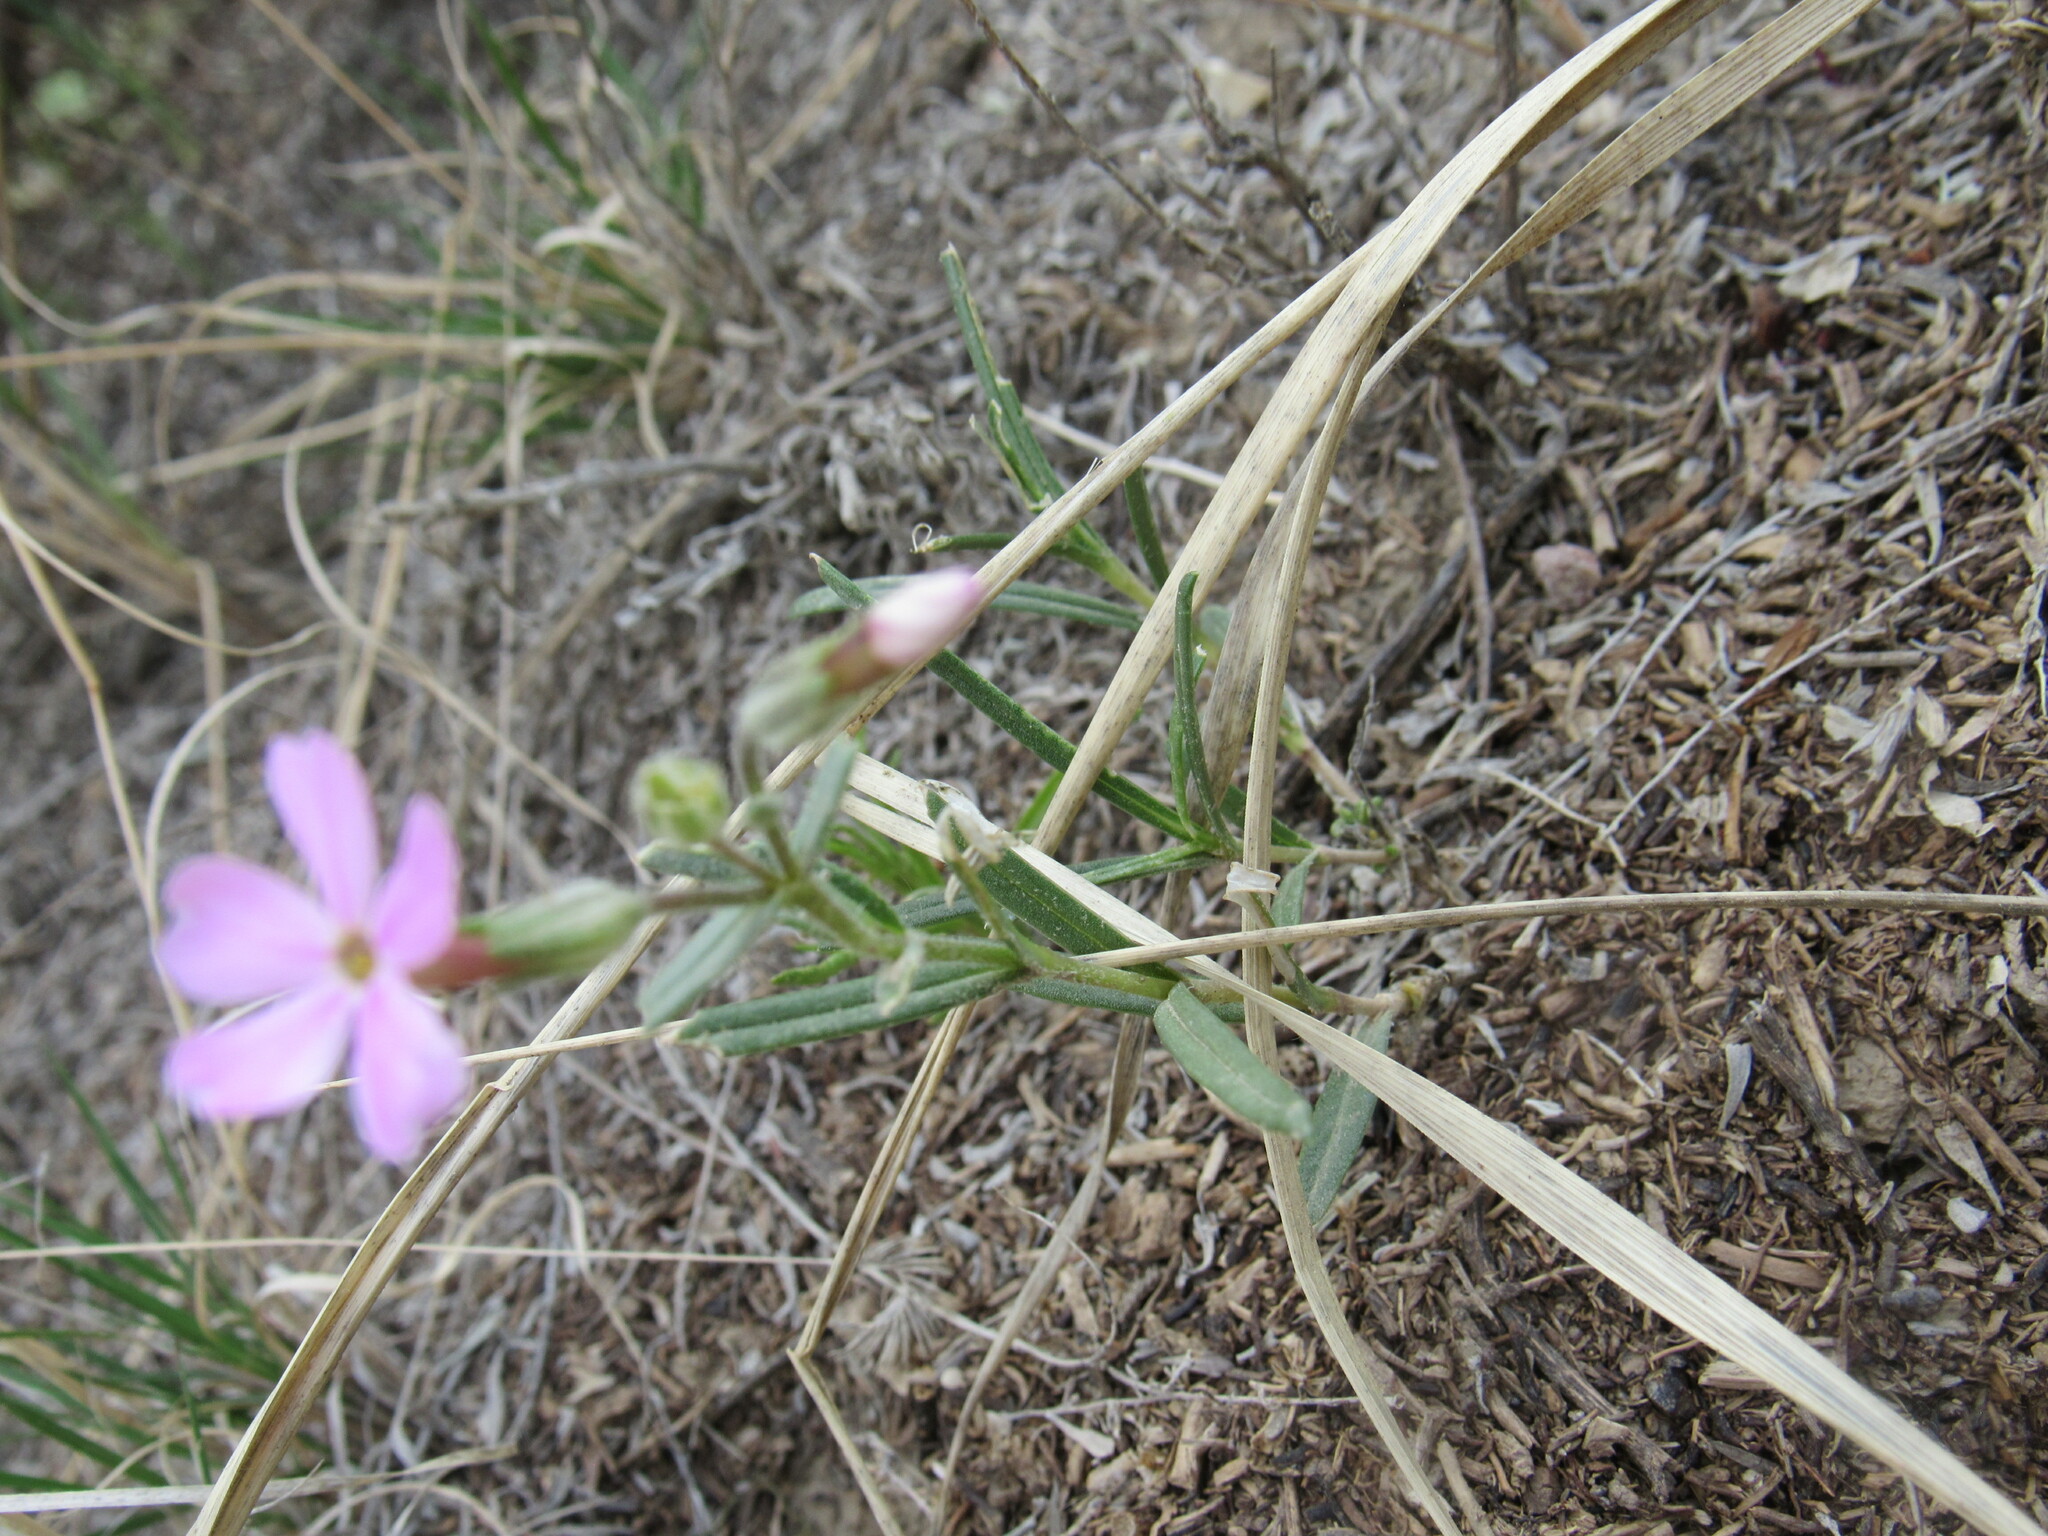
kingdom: Plantae
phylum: Tracheophyta
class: Magnoliopsida
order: Ericales
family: Polemoniaceae
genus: Phlox
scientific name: Phlox longifolia
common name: Longleaf phlox
